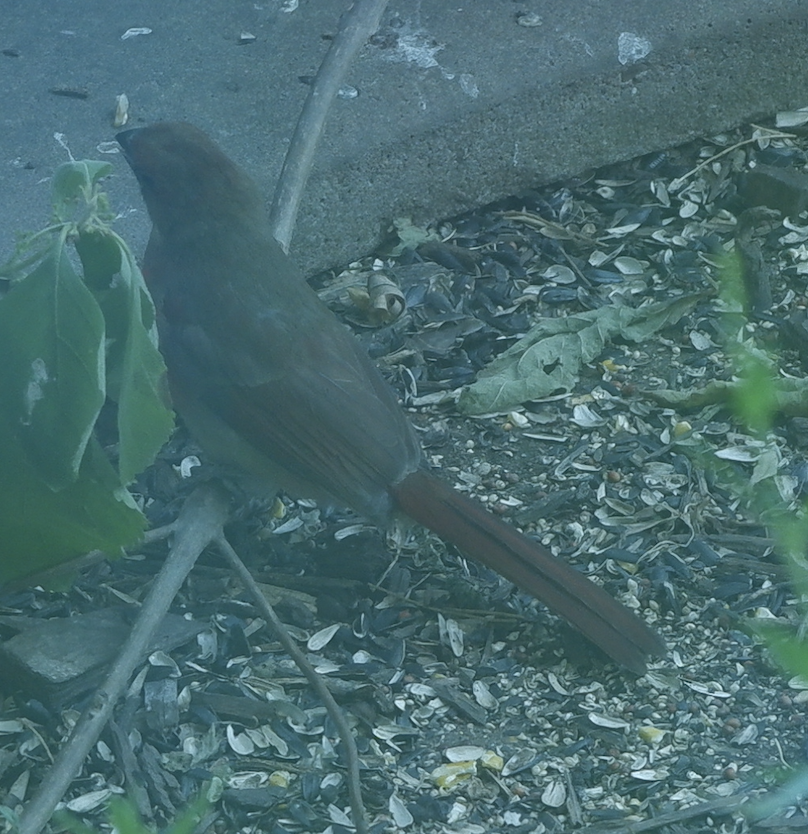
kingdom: Animalia
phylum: Chordata
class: Aves
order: Passeriformes
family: Cardinalidae
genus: Cardinalis
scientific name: Cardinalis cardinalis
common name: Northern cardinal
